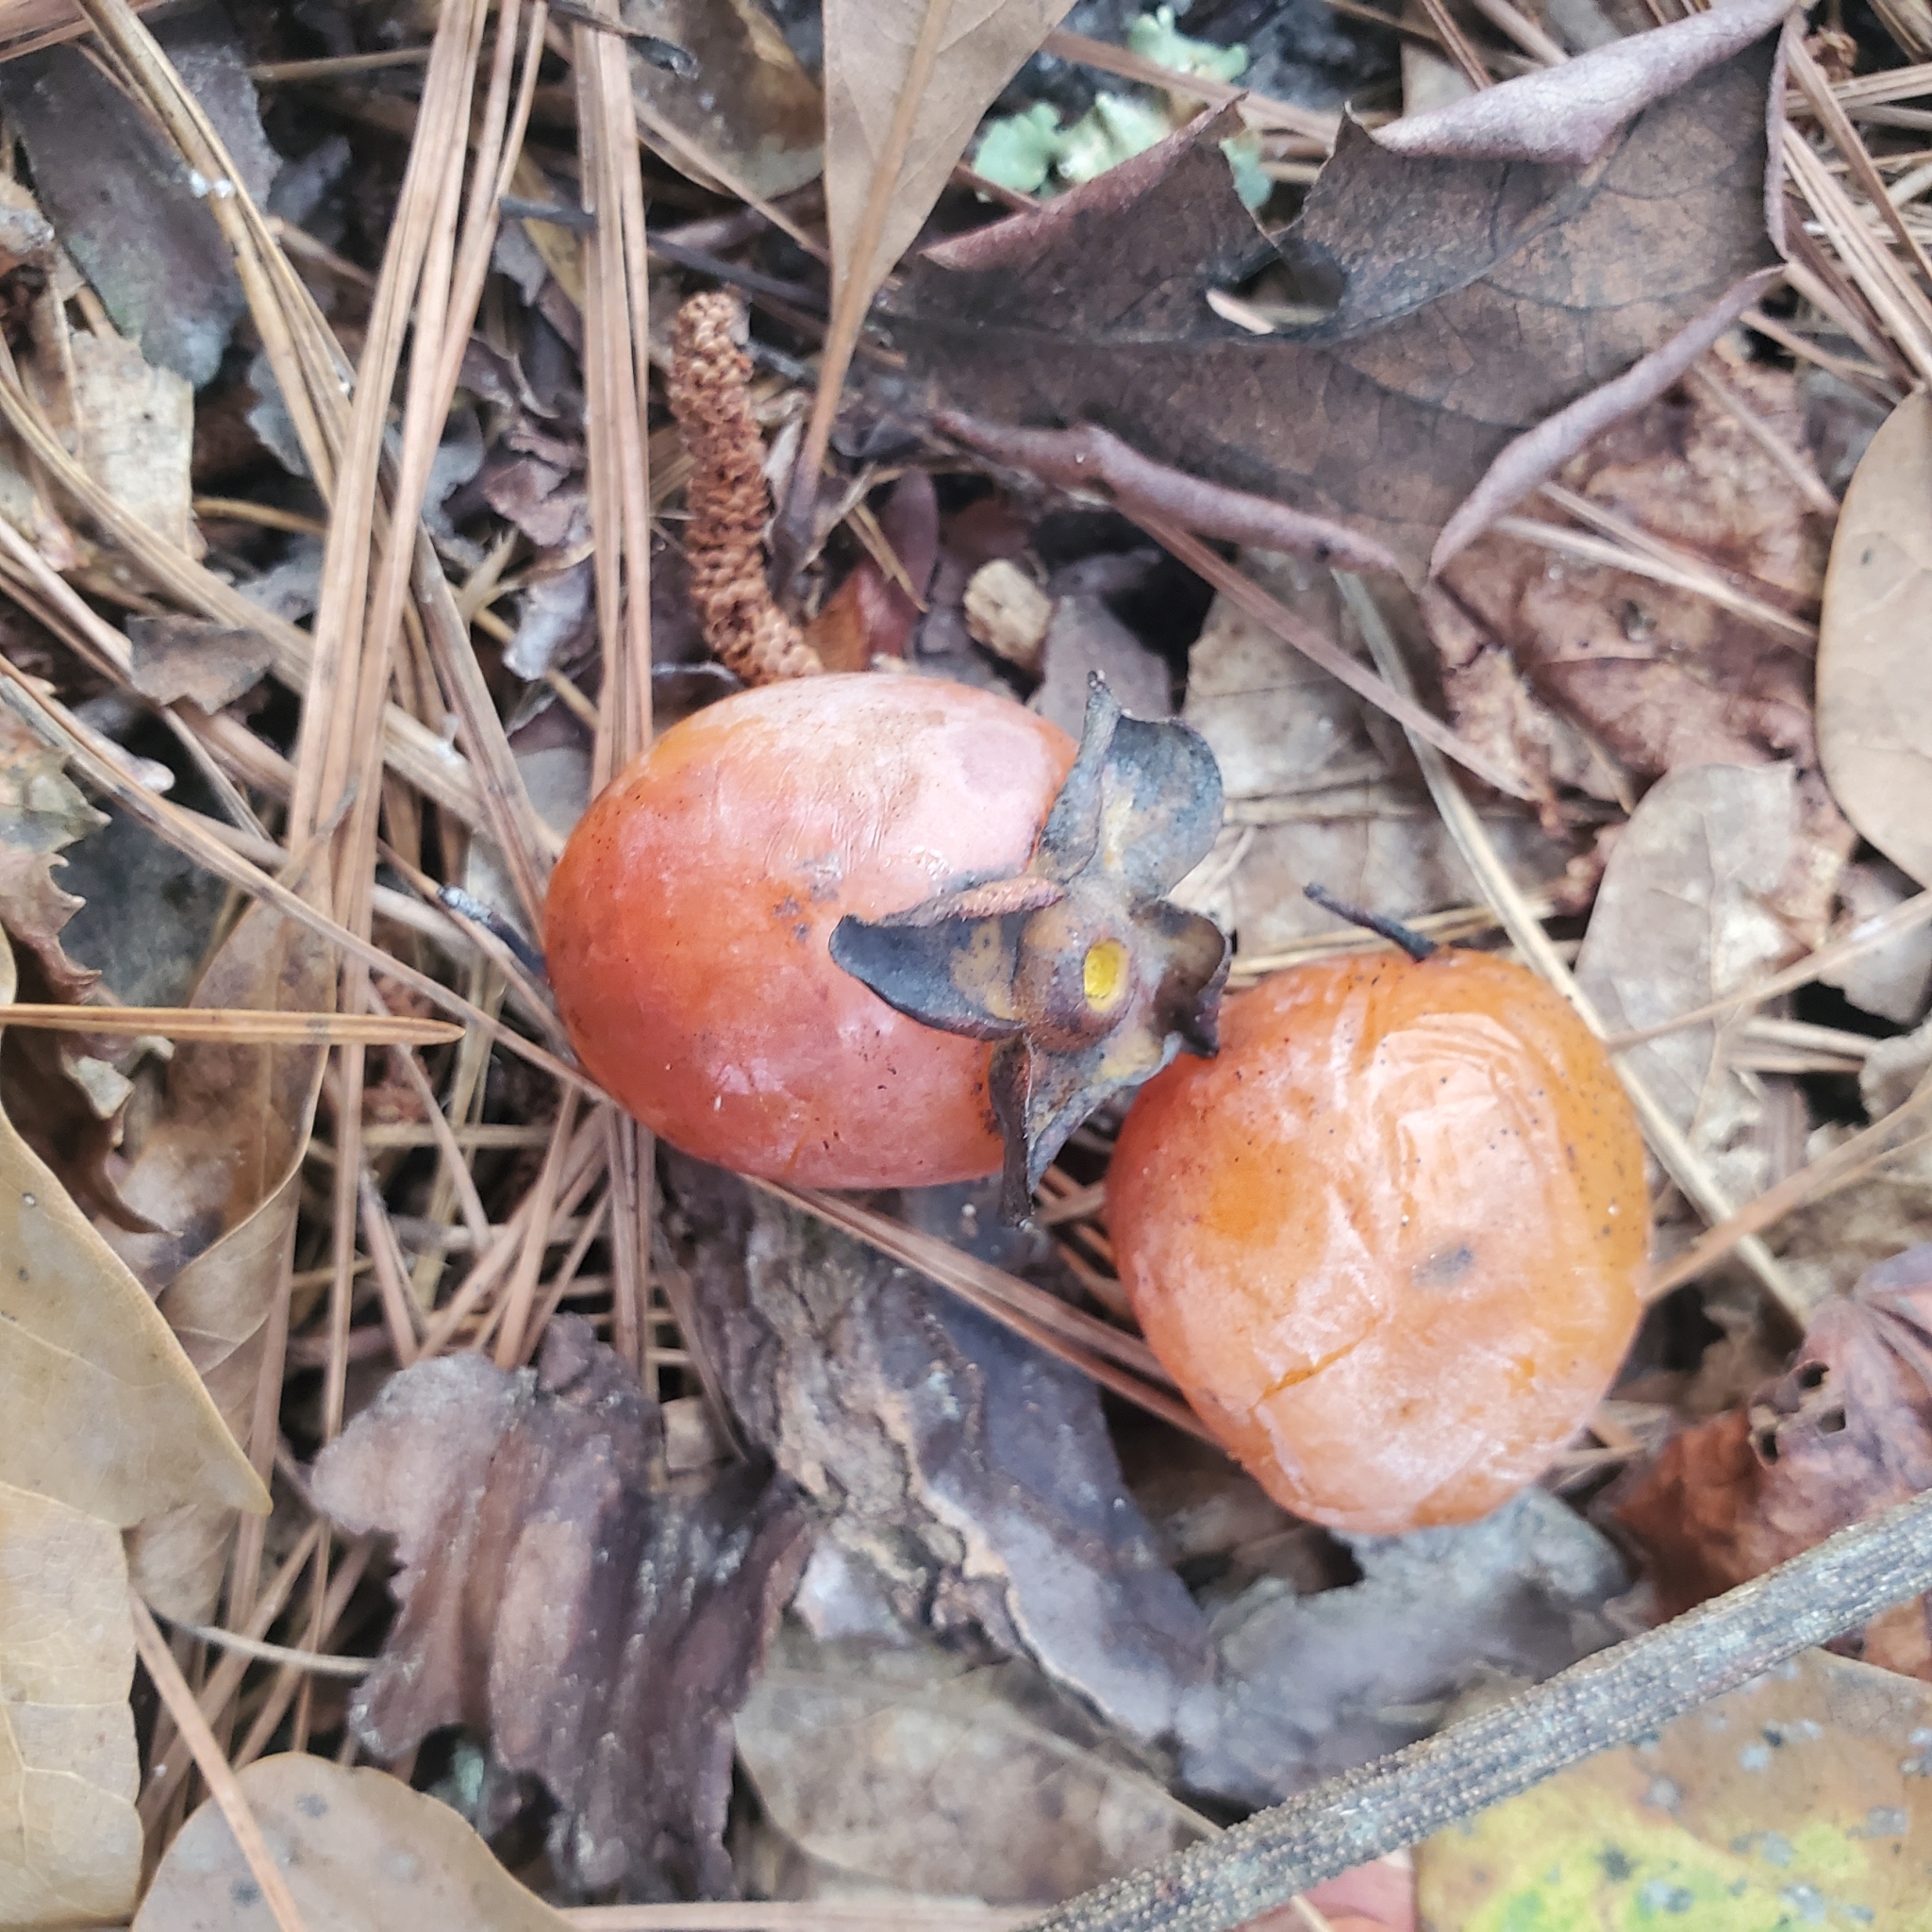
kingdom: Plantae
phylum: Tracheophyta
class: Magnoliopsida
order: Ericales
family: Ebenaceae
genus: Diospyros
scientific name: Diospyros virginiana
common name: Persimmon
